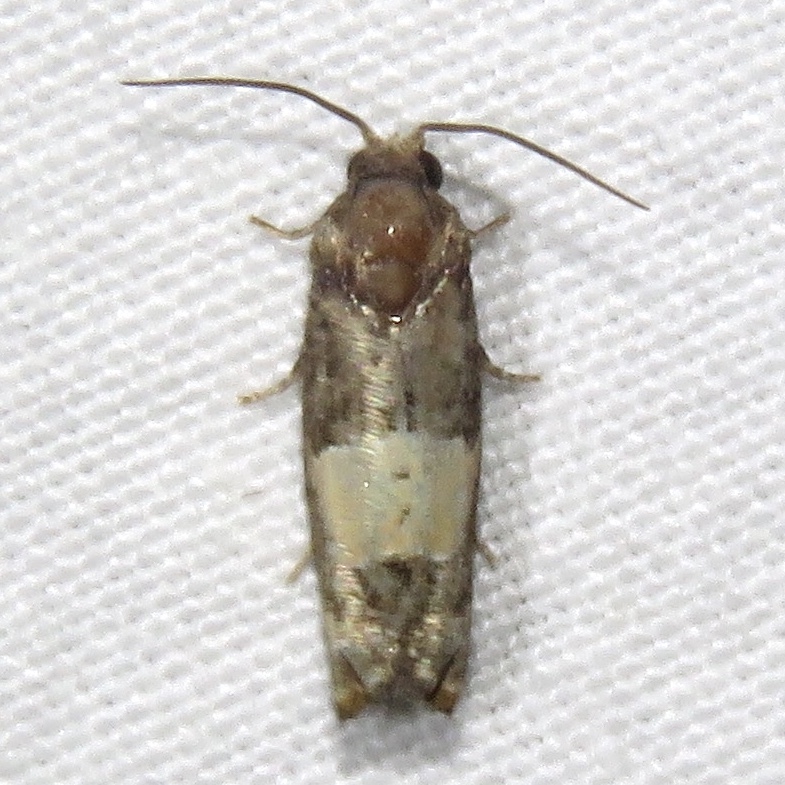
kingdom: Animalia
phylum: Arthropoda
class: Insecta
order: Lepidoptera
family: Tortricidae
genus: Epiblema
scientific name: Epiblema glenni
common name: Glenn's epiblema
